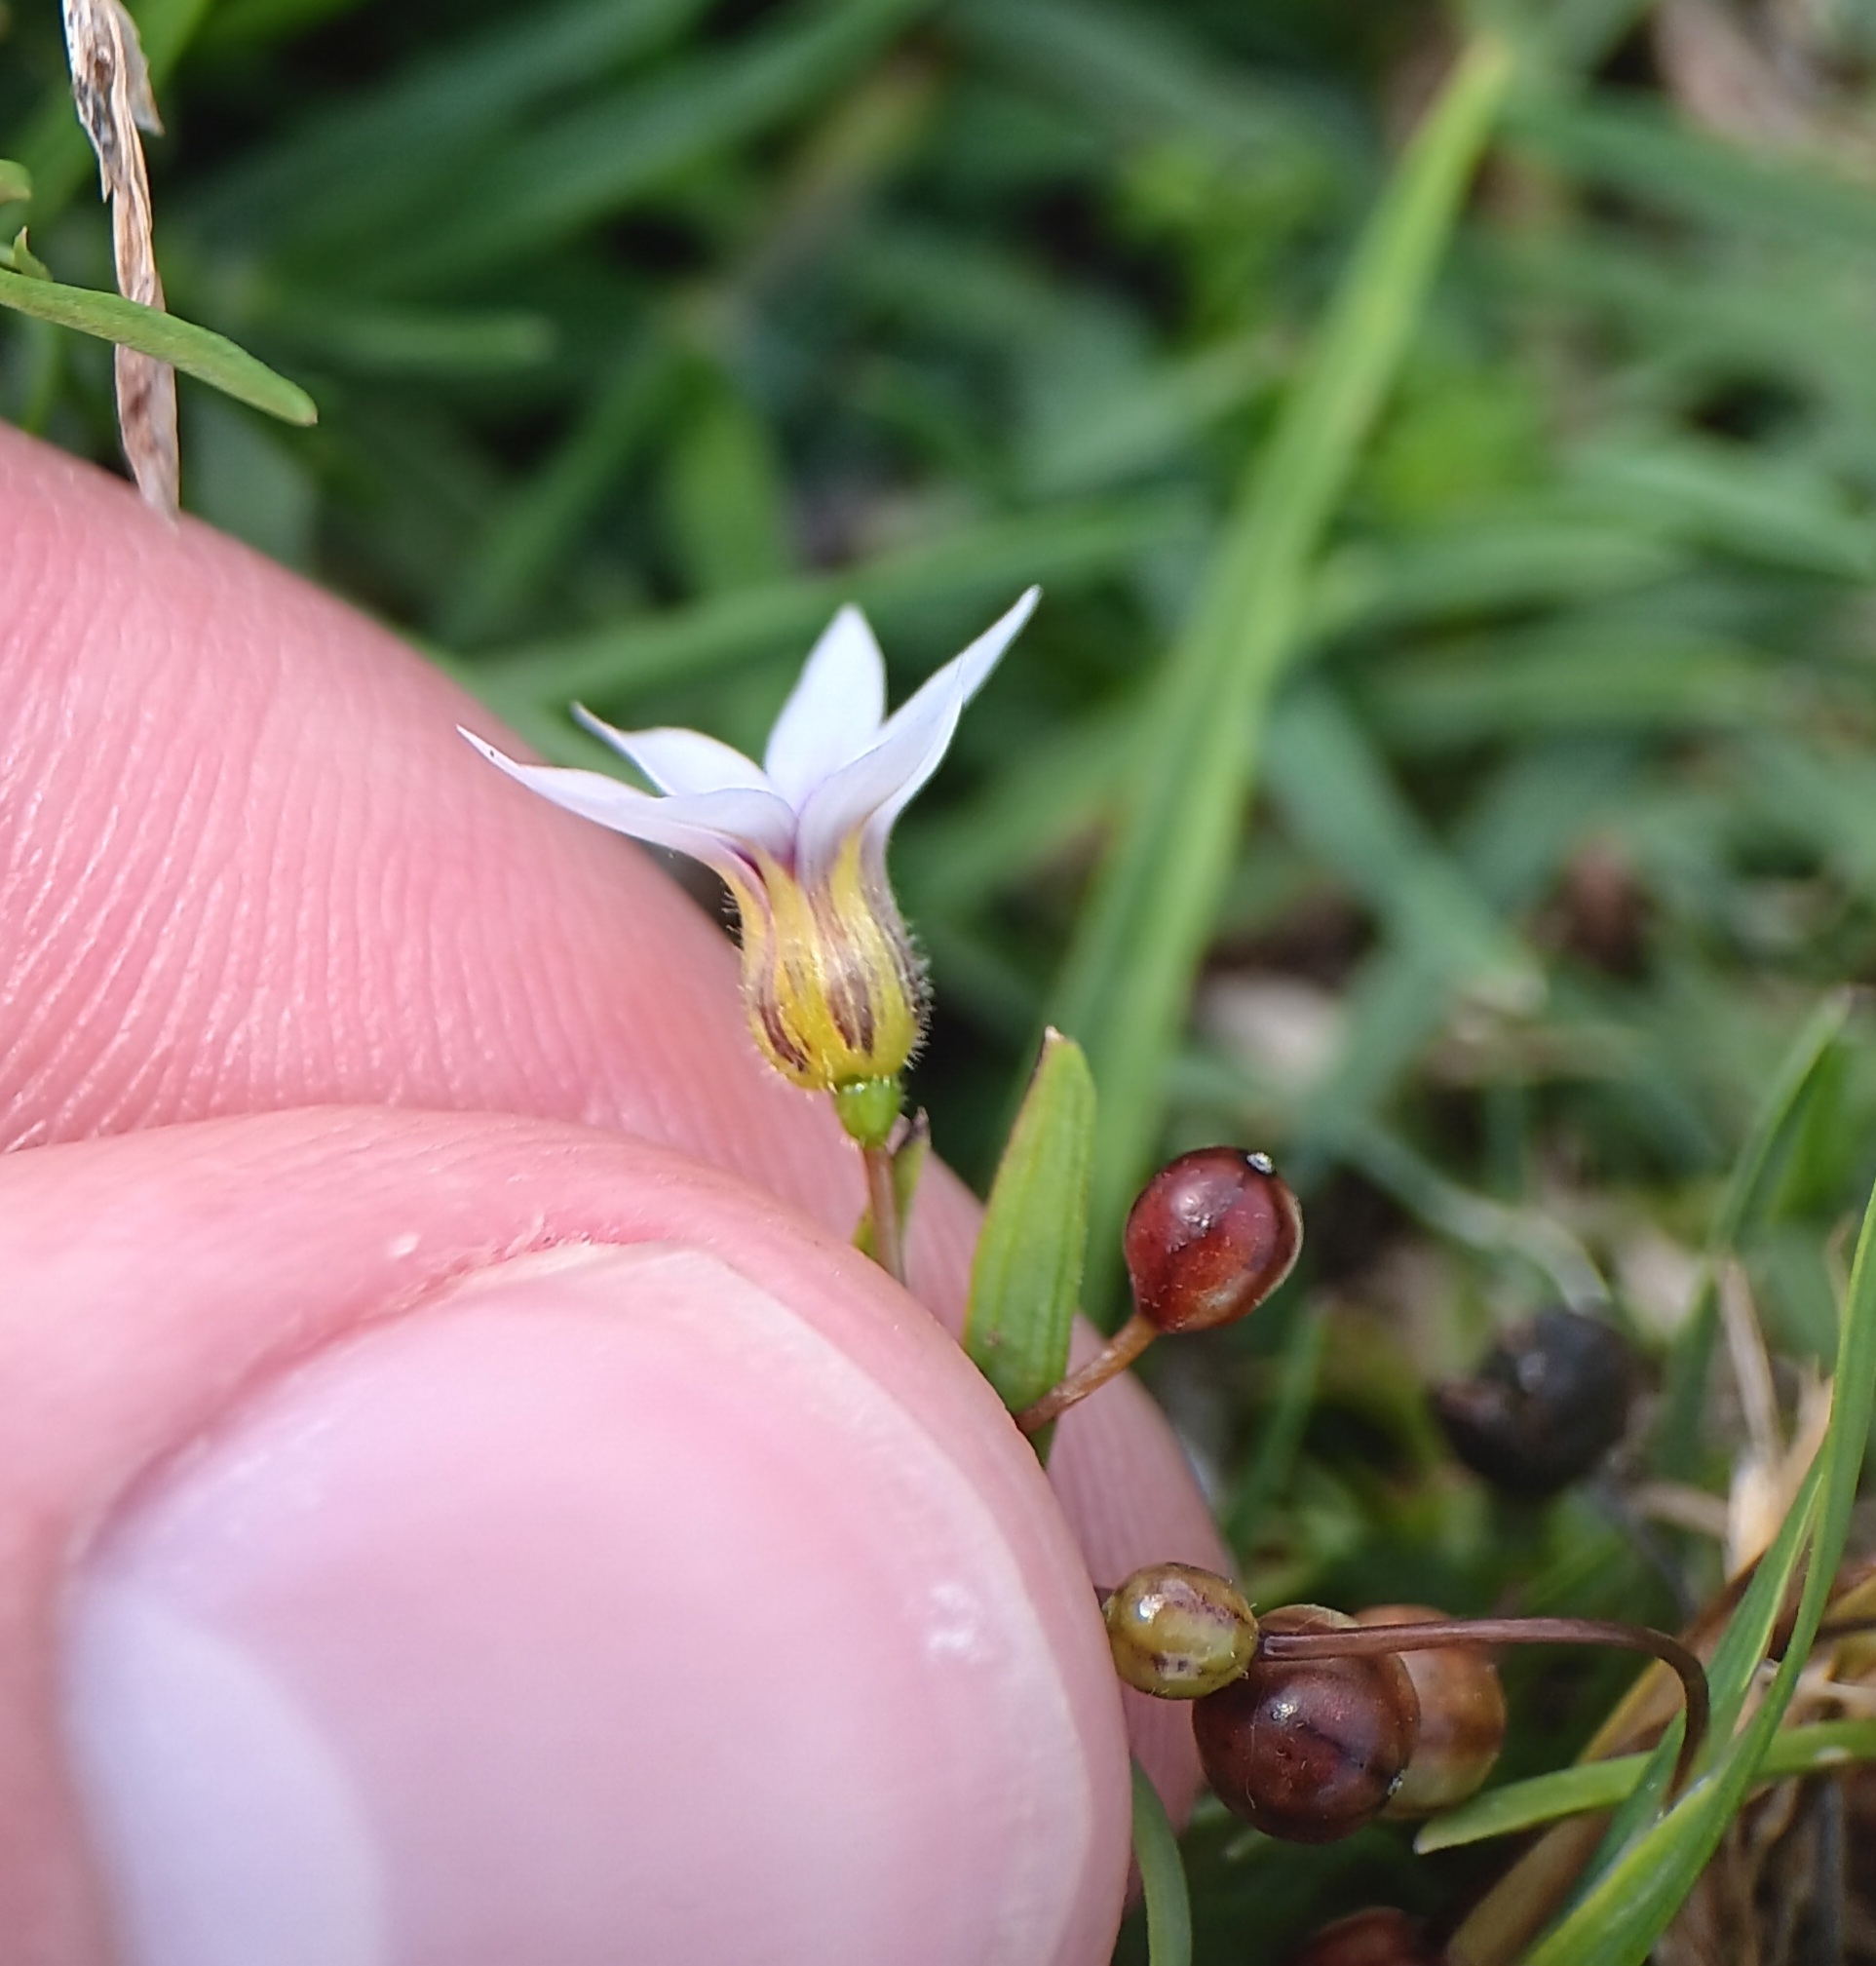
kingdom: Plantae
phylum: Tracheophyta
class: Liliopsida
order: Asparagales
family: Iridaceae
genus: Sisyrinchium
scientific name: Sisyrinchium micranthum
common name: Bermuda pigroot
